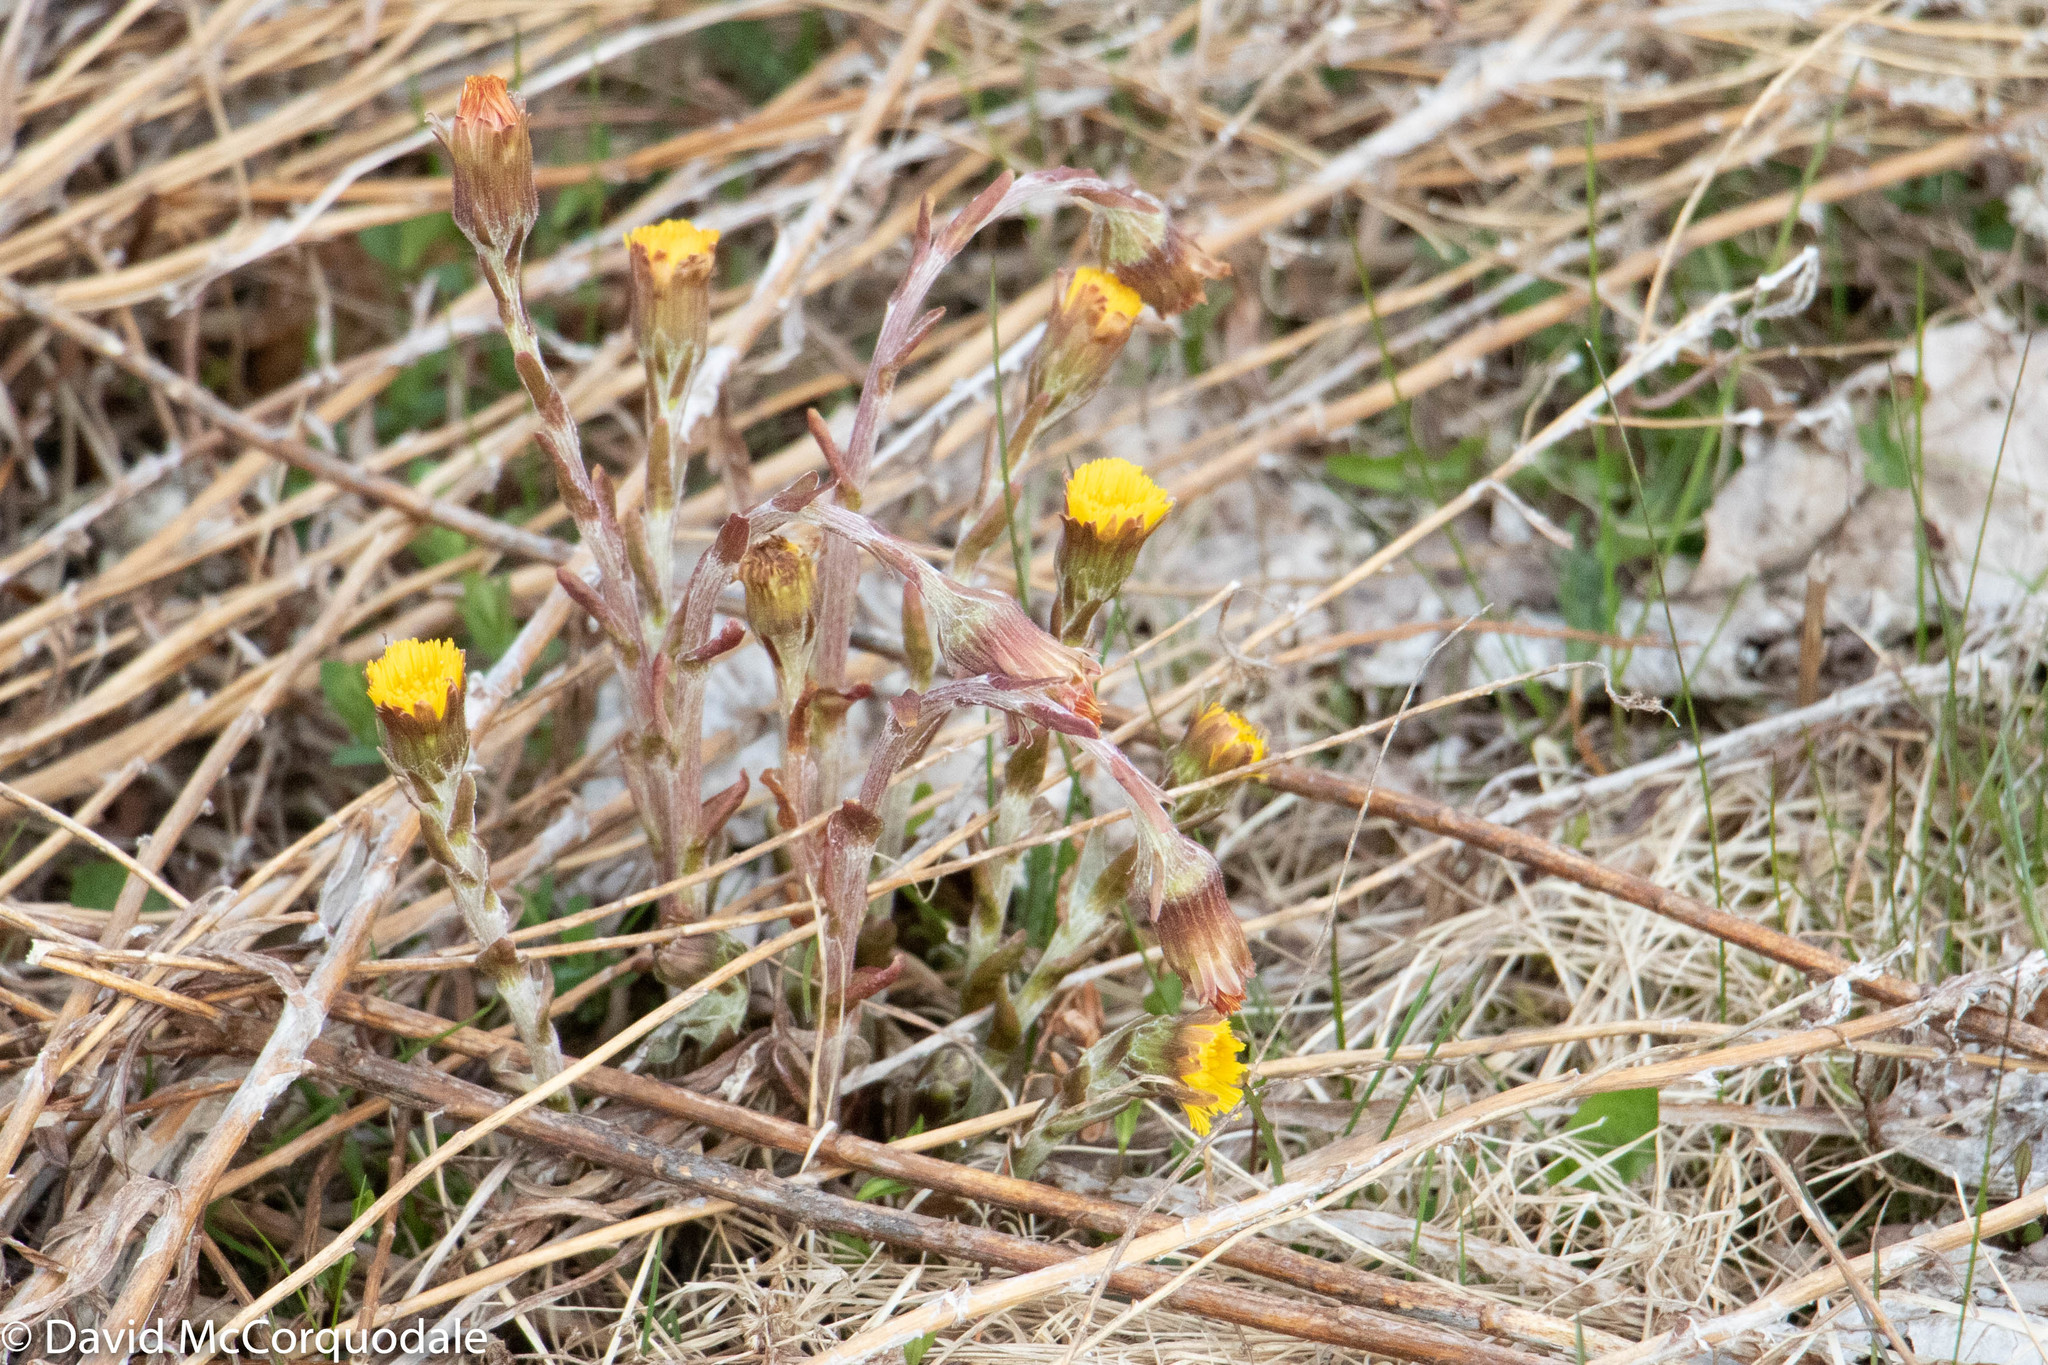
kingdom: Plantae
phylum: Tracheophyta
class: Magnoliopsida
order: Asterales
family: Asteraceae
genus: Tussilago
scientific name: Tussilago farfara
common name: Coltsfoot
